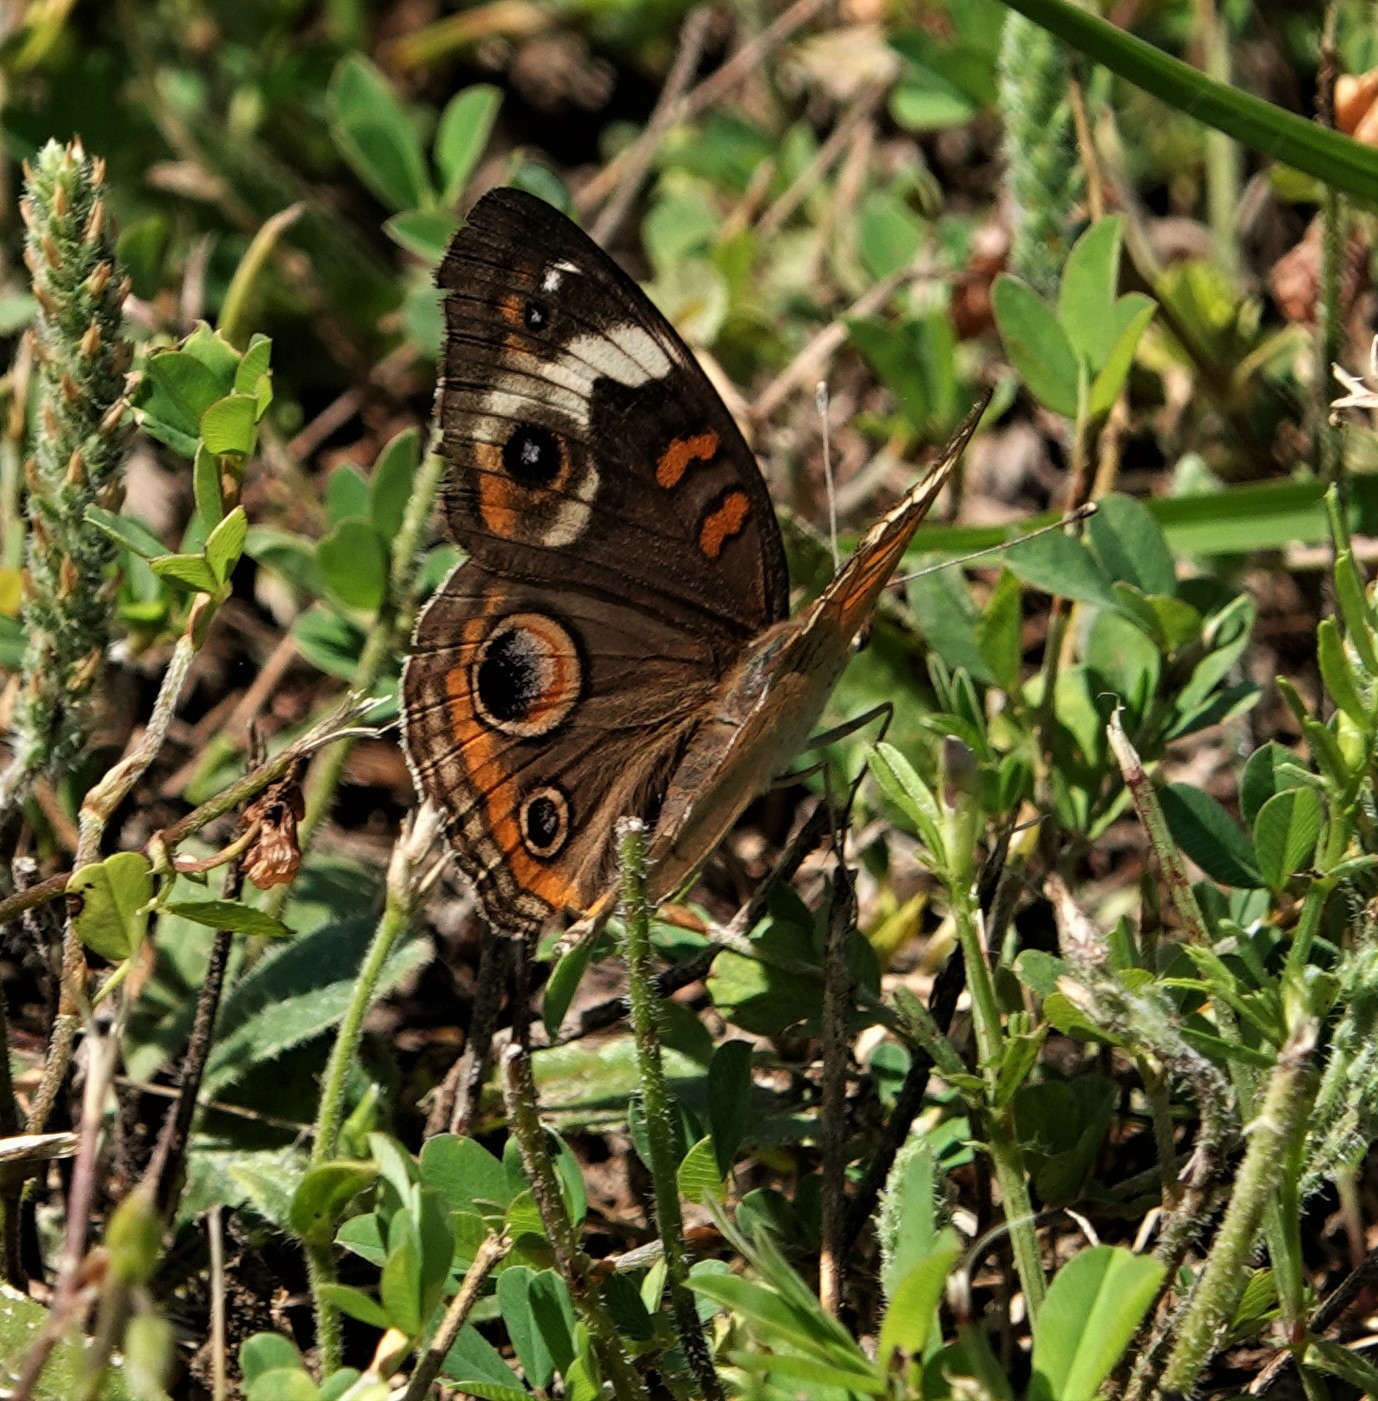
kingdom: Animalia
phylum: Arthropoda
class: Insecta
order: Lepidoptera
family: Nymphalidae
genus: Junonia
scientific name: Junonia coenia
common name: Common buckeye
